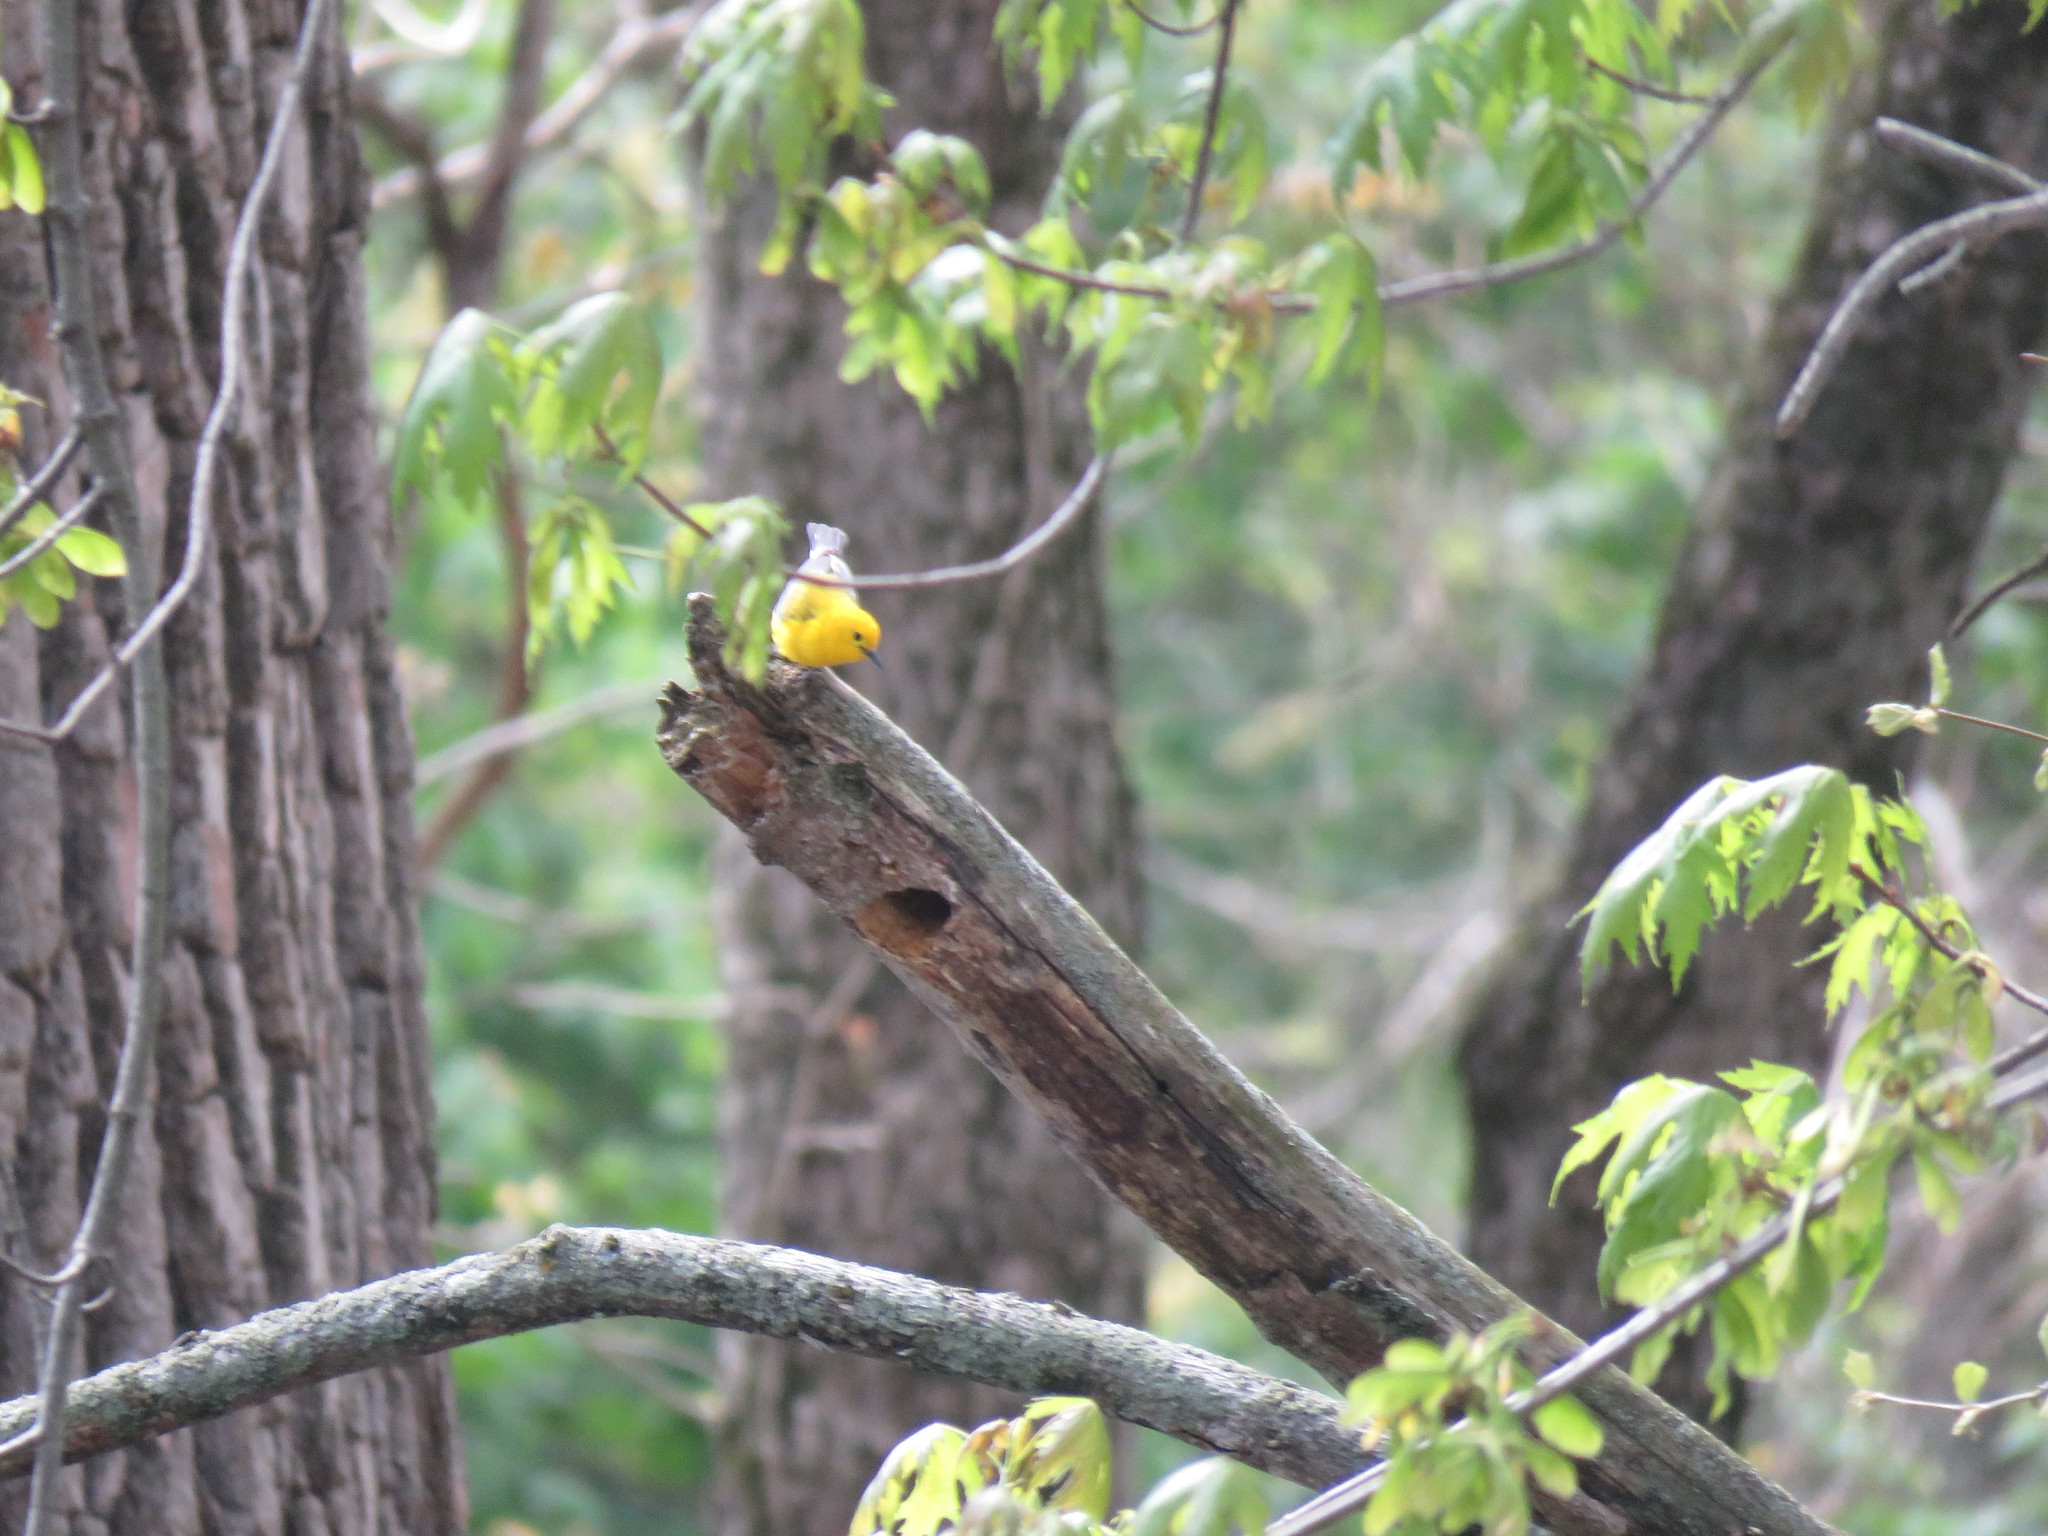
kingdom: Animalia
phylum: Chordata
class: Aves
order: Passeriformes
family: Parulidae
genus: Protonotaria
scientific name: Protonotaria citrea
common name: Prothonotary warbler
